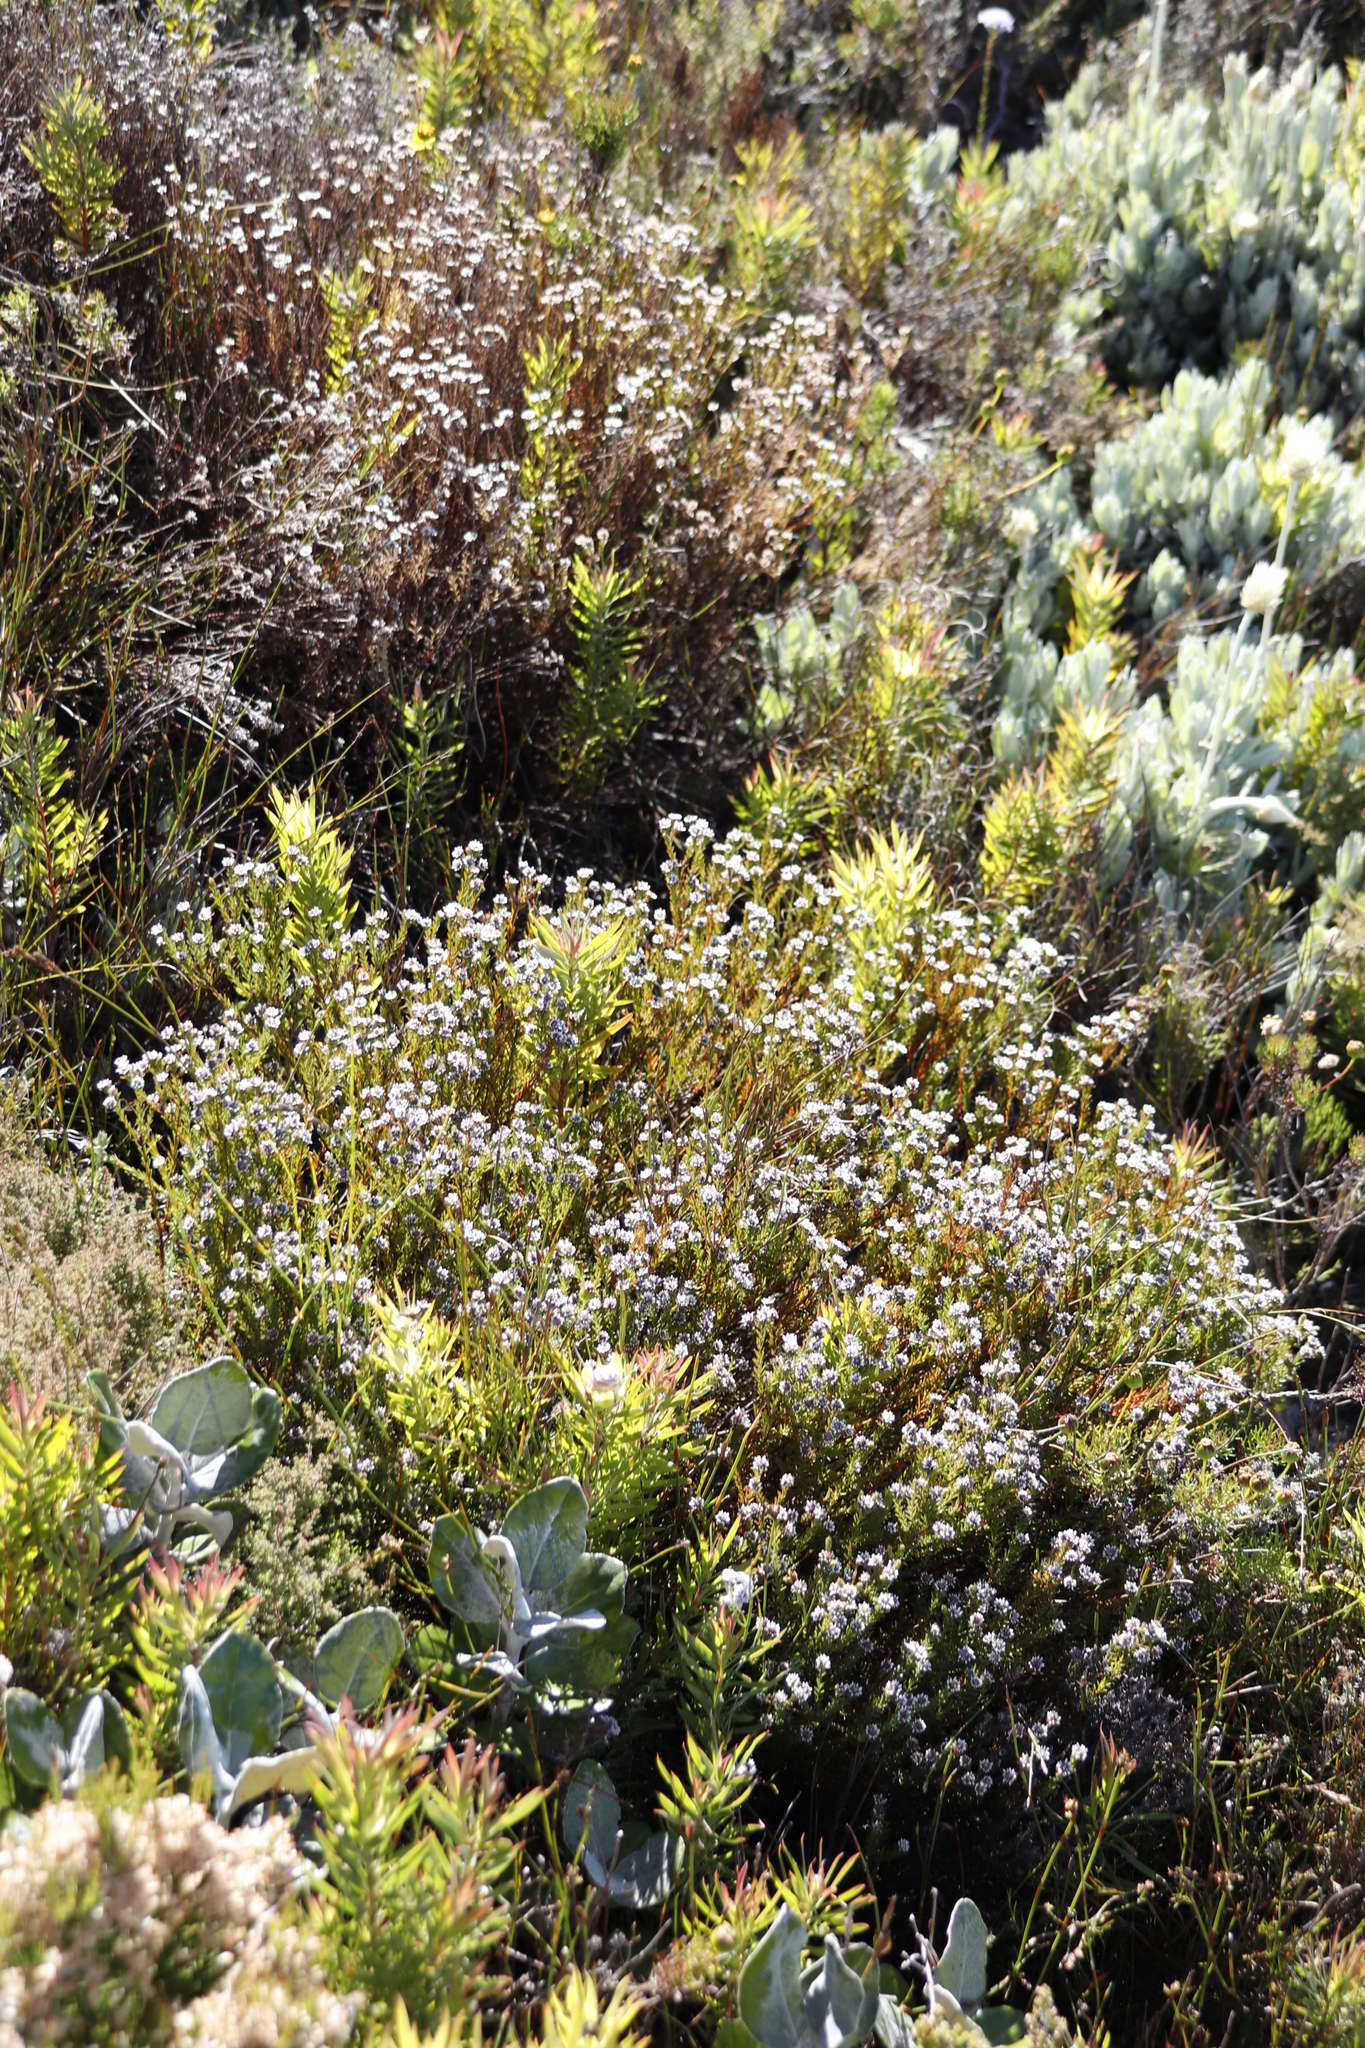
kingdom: Plantae
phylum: Tracheophyta
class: Magnoliopsida
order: Bruniales
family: Bruniaceae
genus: Staavia
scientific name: Staavia radiata
